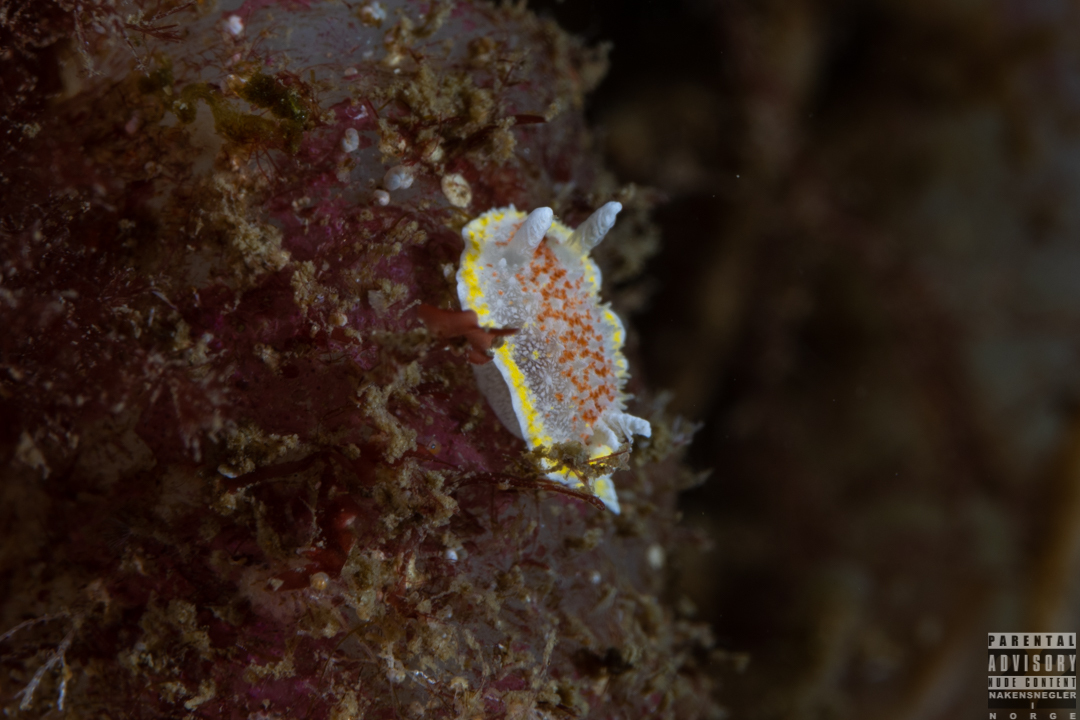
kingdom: Animalia
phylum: Mollusca
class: Gastropoda
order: Nudibranchia
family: Calycidorididae
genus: Diaphorodoris
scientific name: Diaphorodoris luteocincta
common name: Fried egg nudibranch
